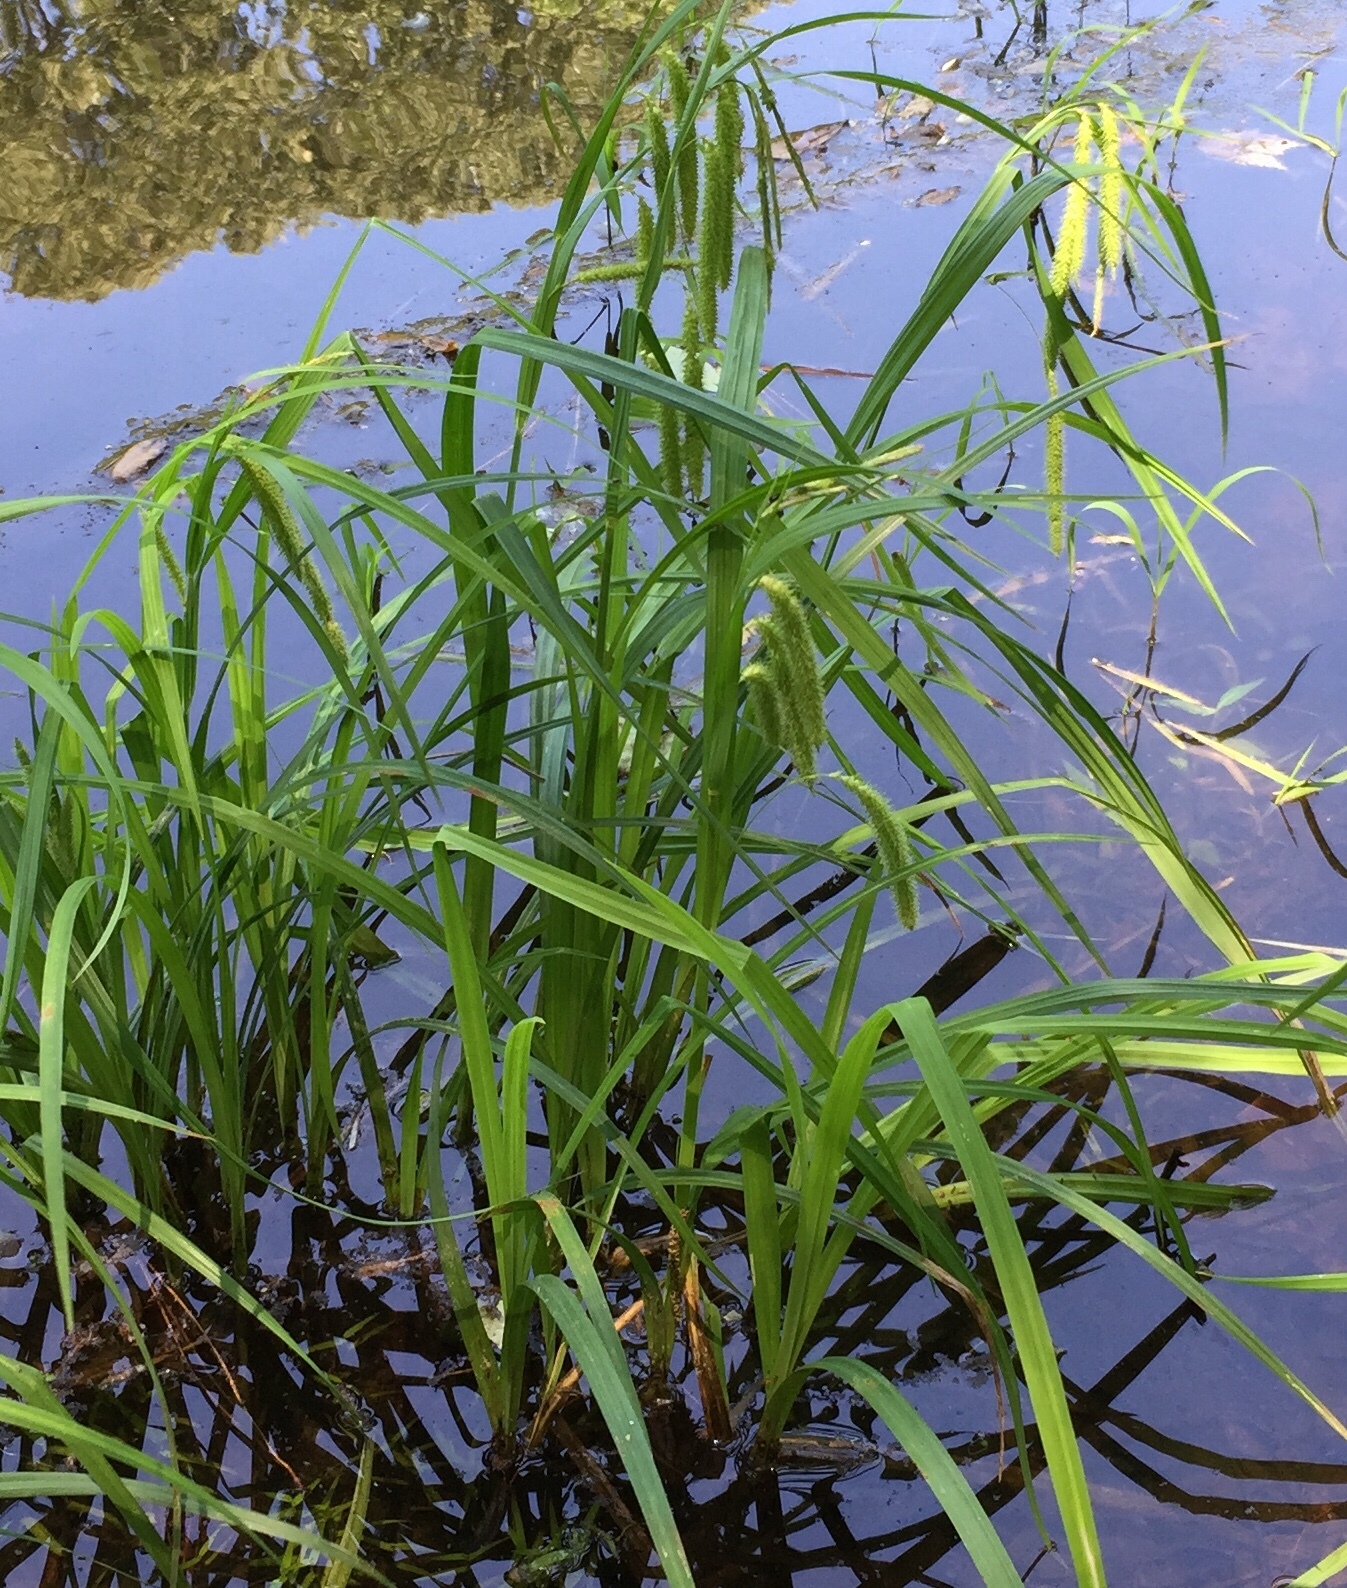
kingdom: Plantae
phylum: Tracheophyta
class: Liliopsida
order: Poales
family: Cyperaceae
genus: Carex
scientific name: Carex crinita
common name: Fringed sedge
